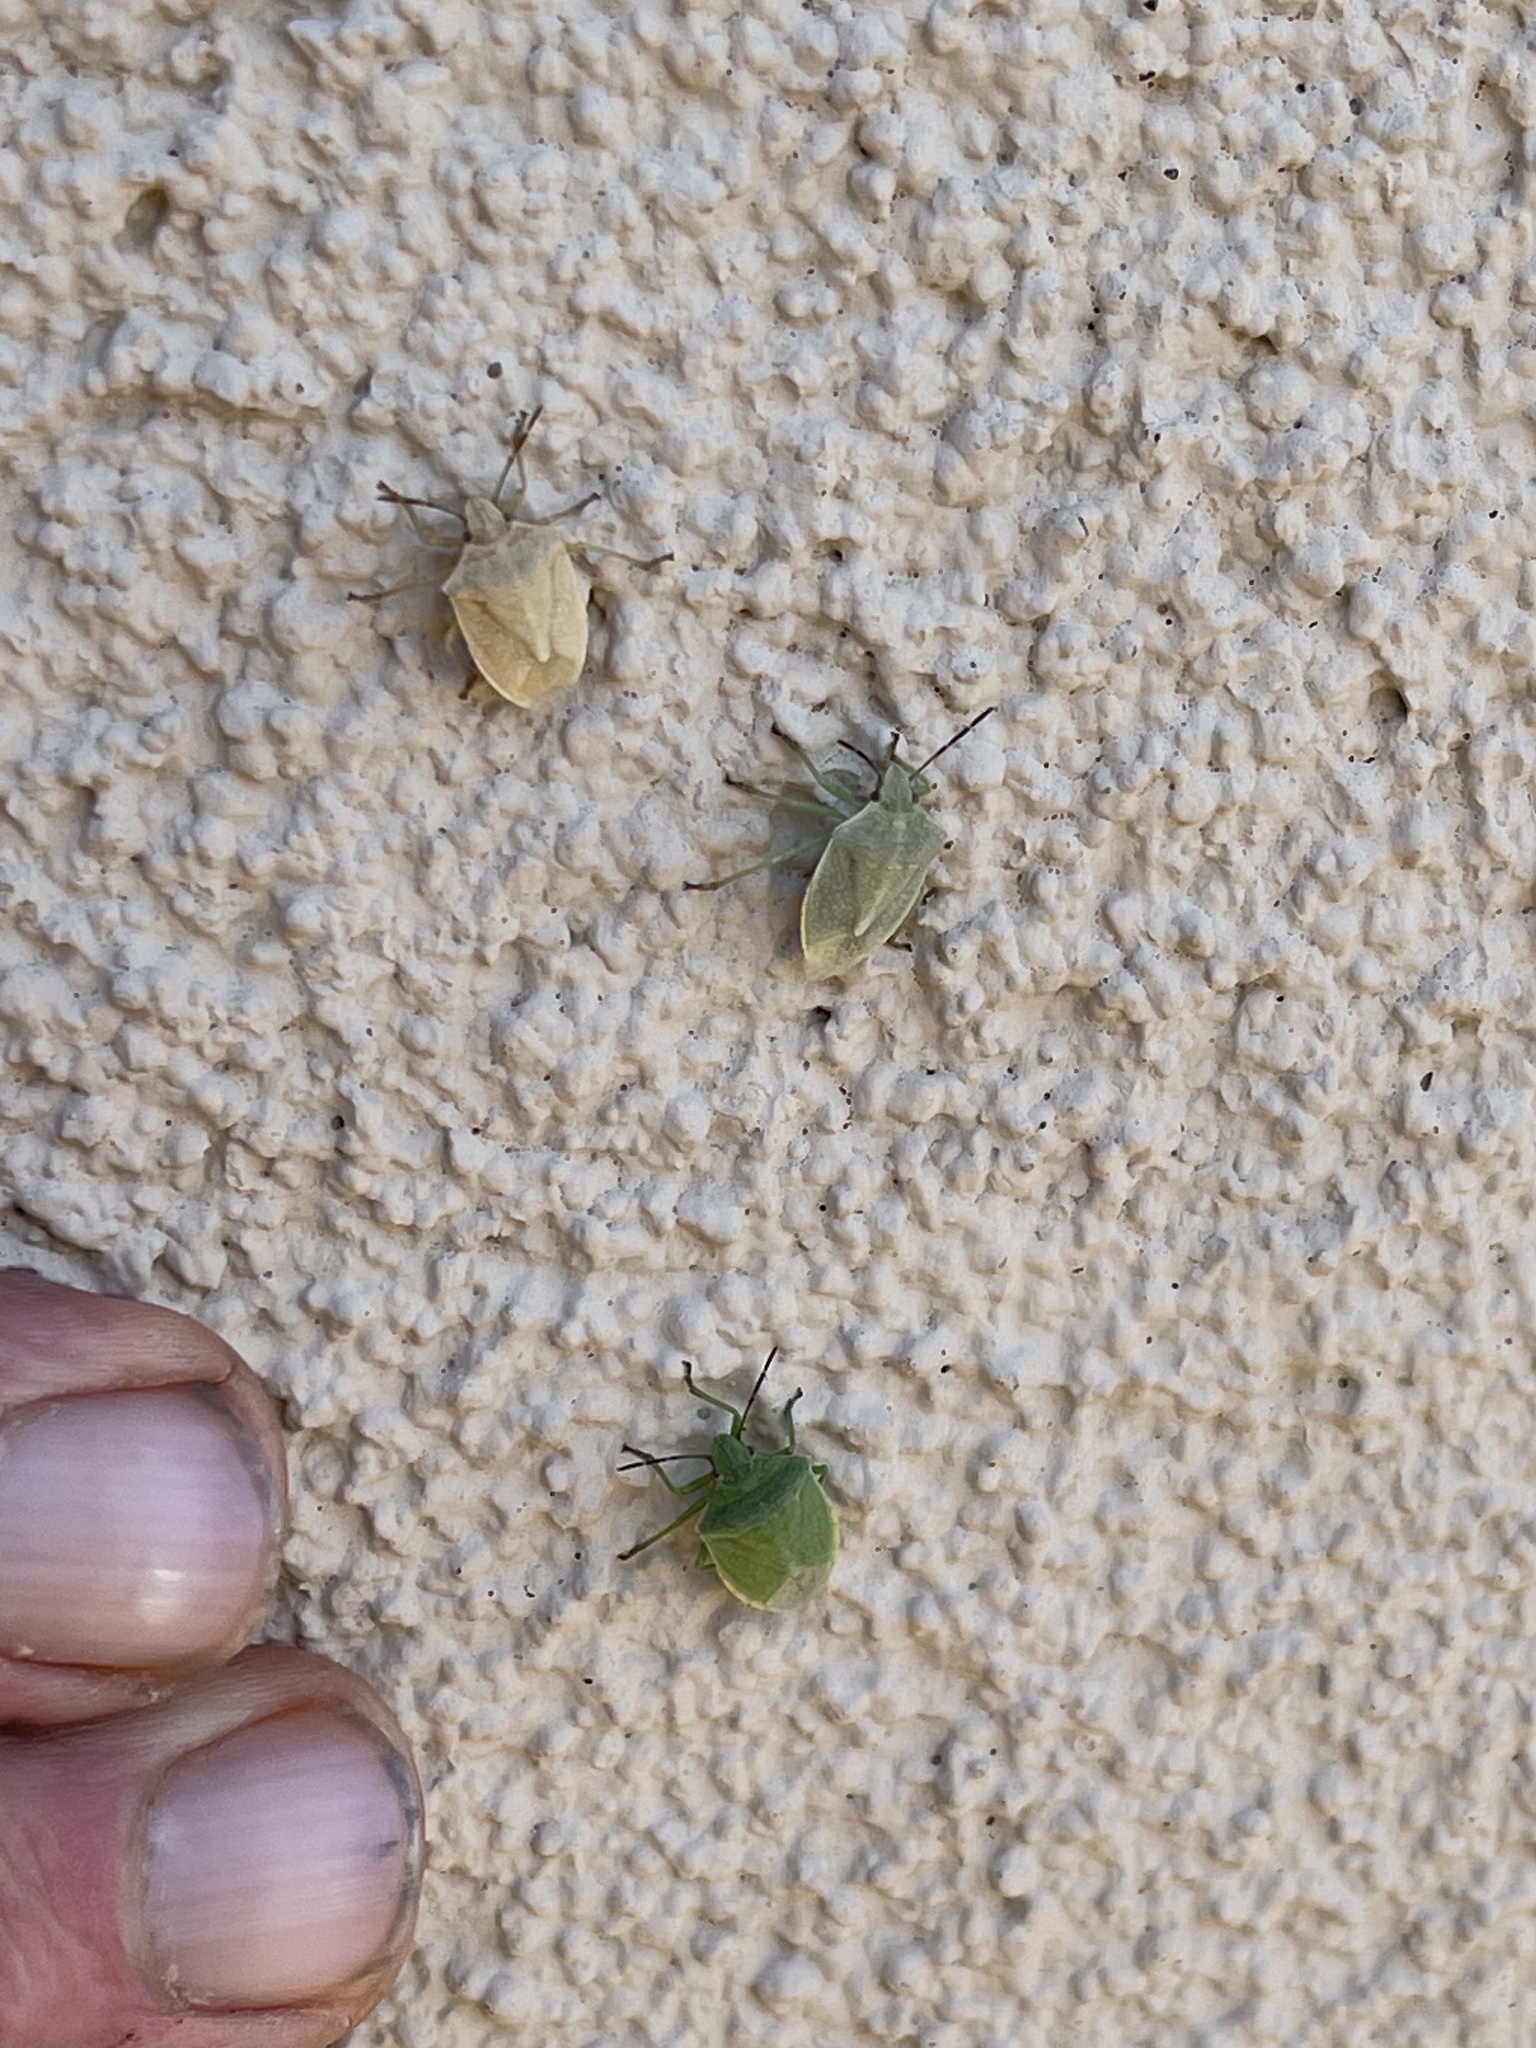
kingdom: Animalia
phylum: Arthropoda
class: Insecta
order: Hemiptera
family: Pentatomidae
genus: Thyanta
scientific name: Thyanta accerra
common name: Stink bug
